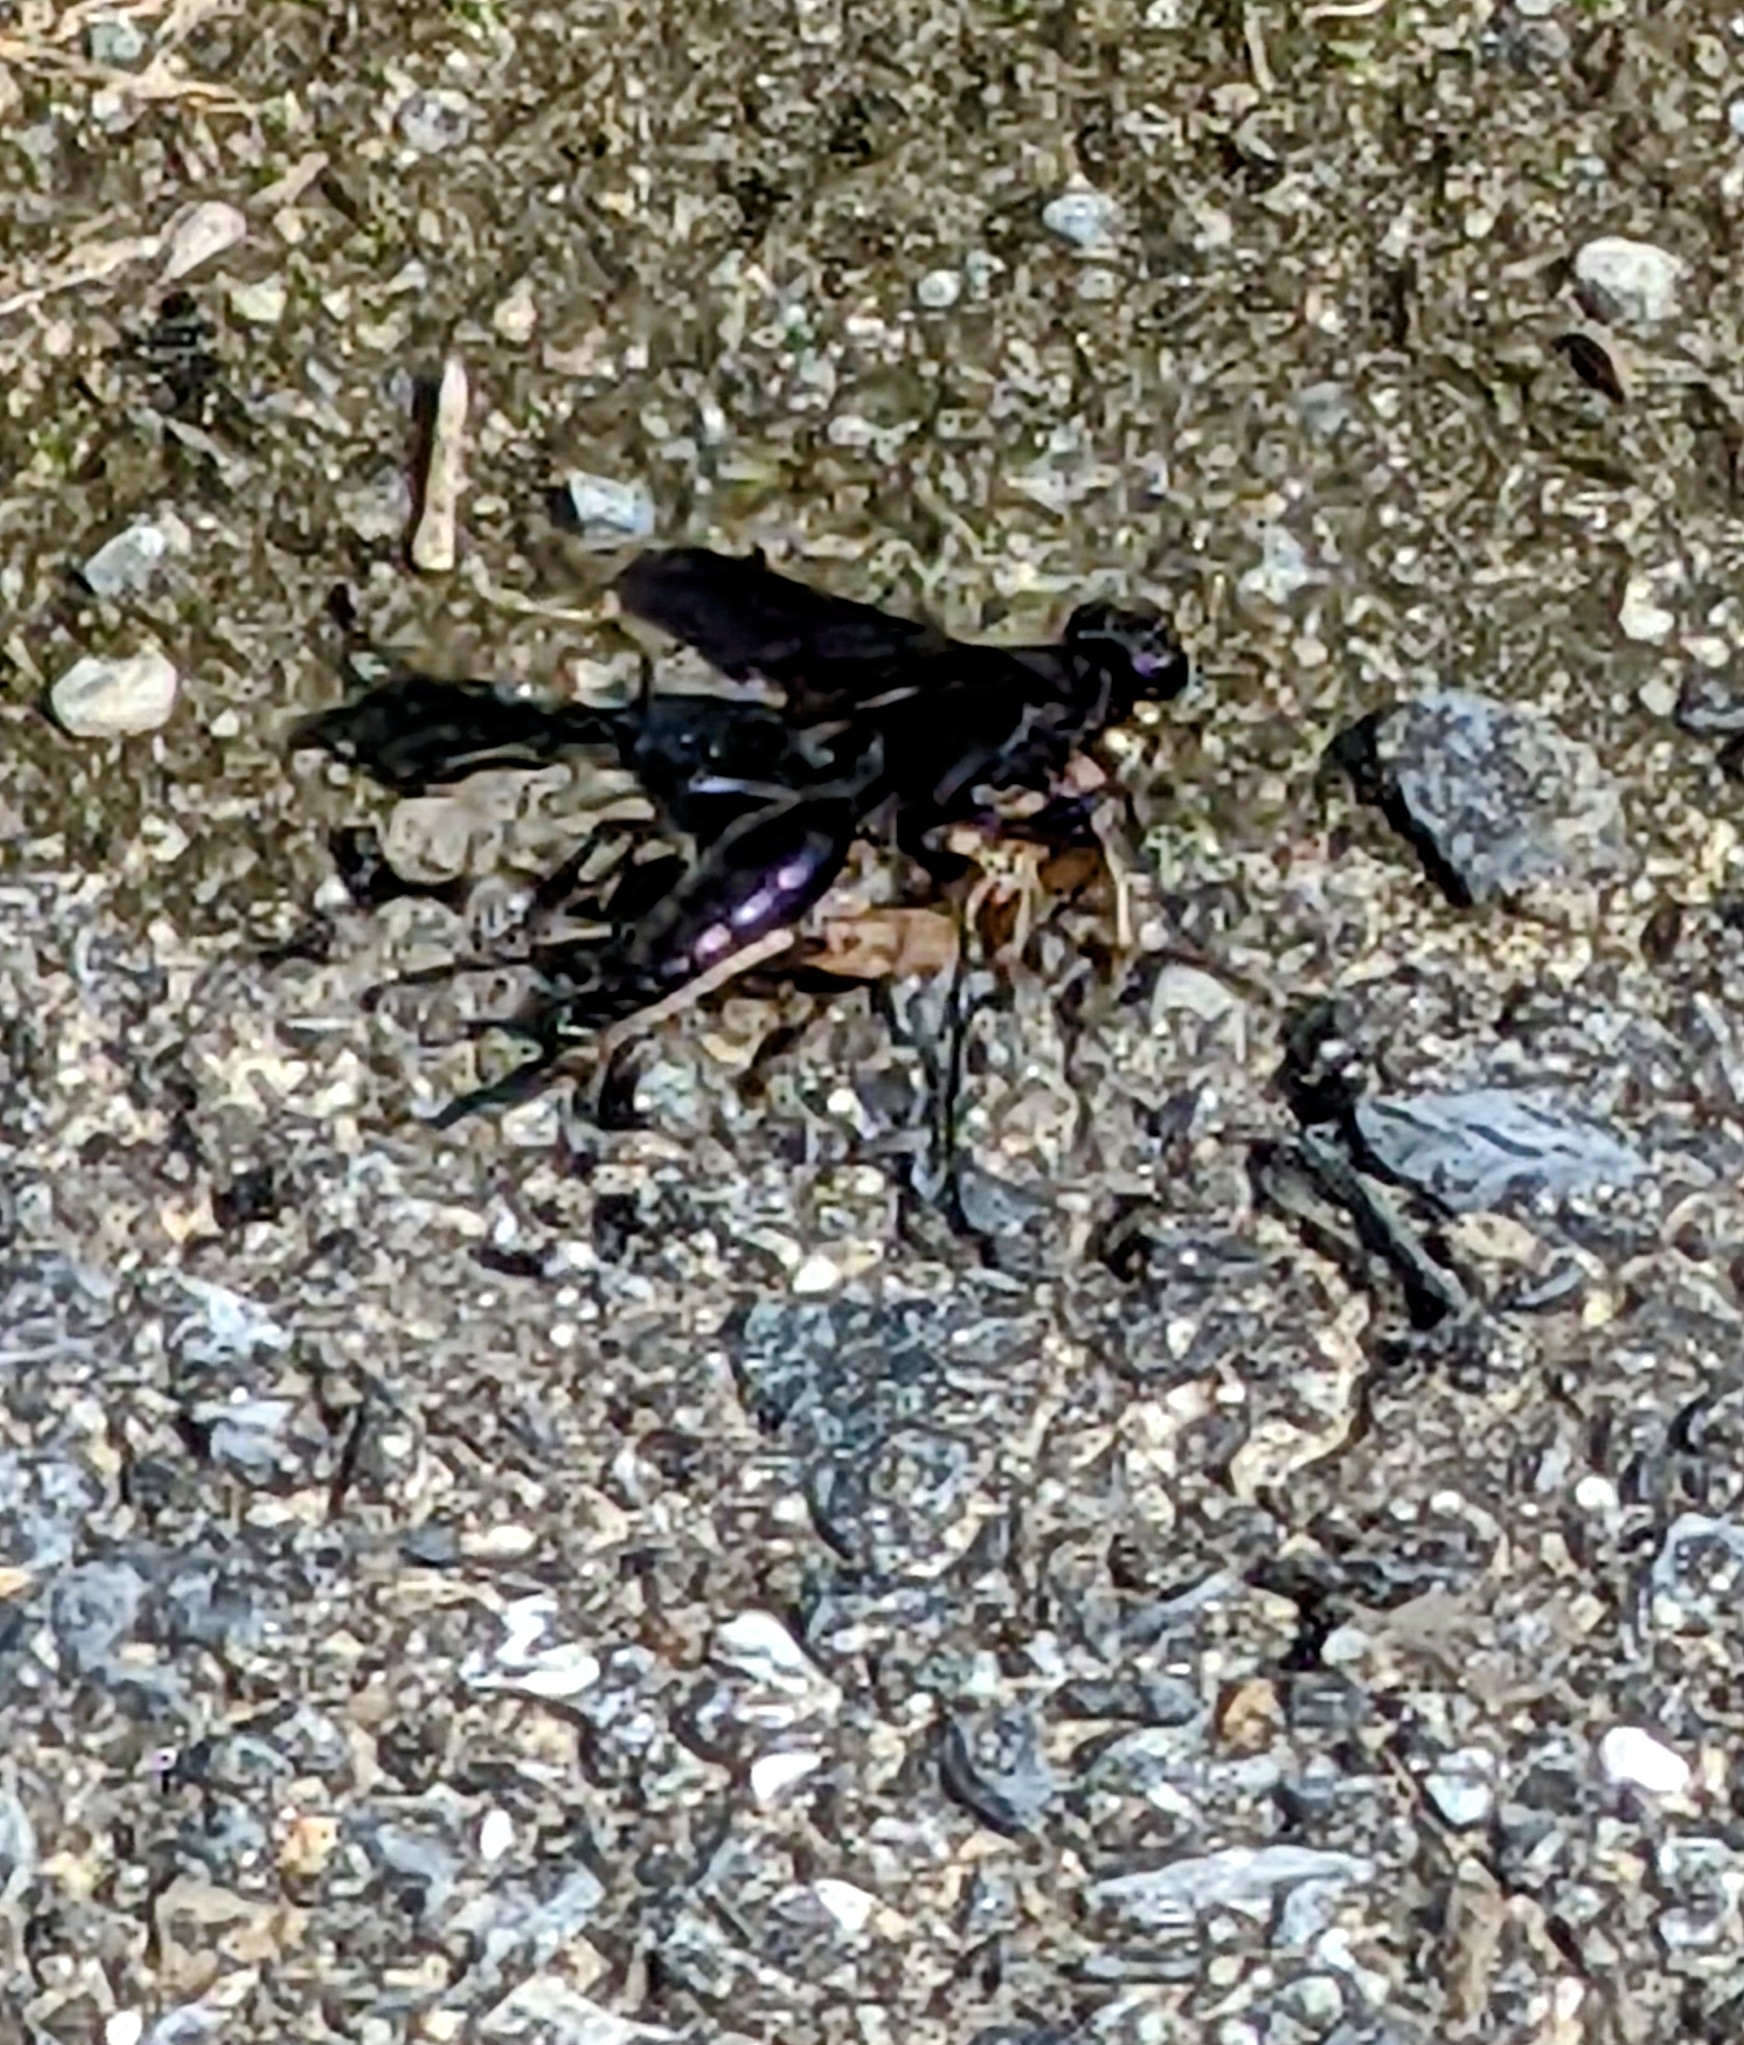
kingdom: Animalia
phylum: Arthropoda
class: Insecta
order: Hymenoptera
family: Sphecidae
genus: Chlorion
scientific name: Chlorion aerarium
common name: Steel-blue cricket hunter
